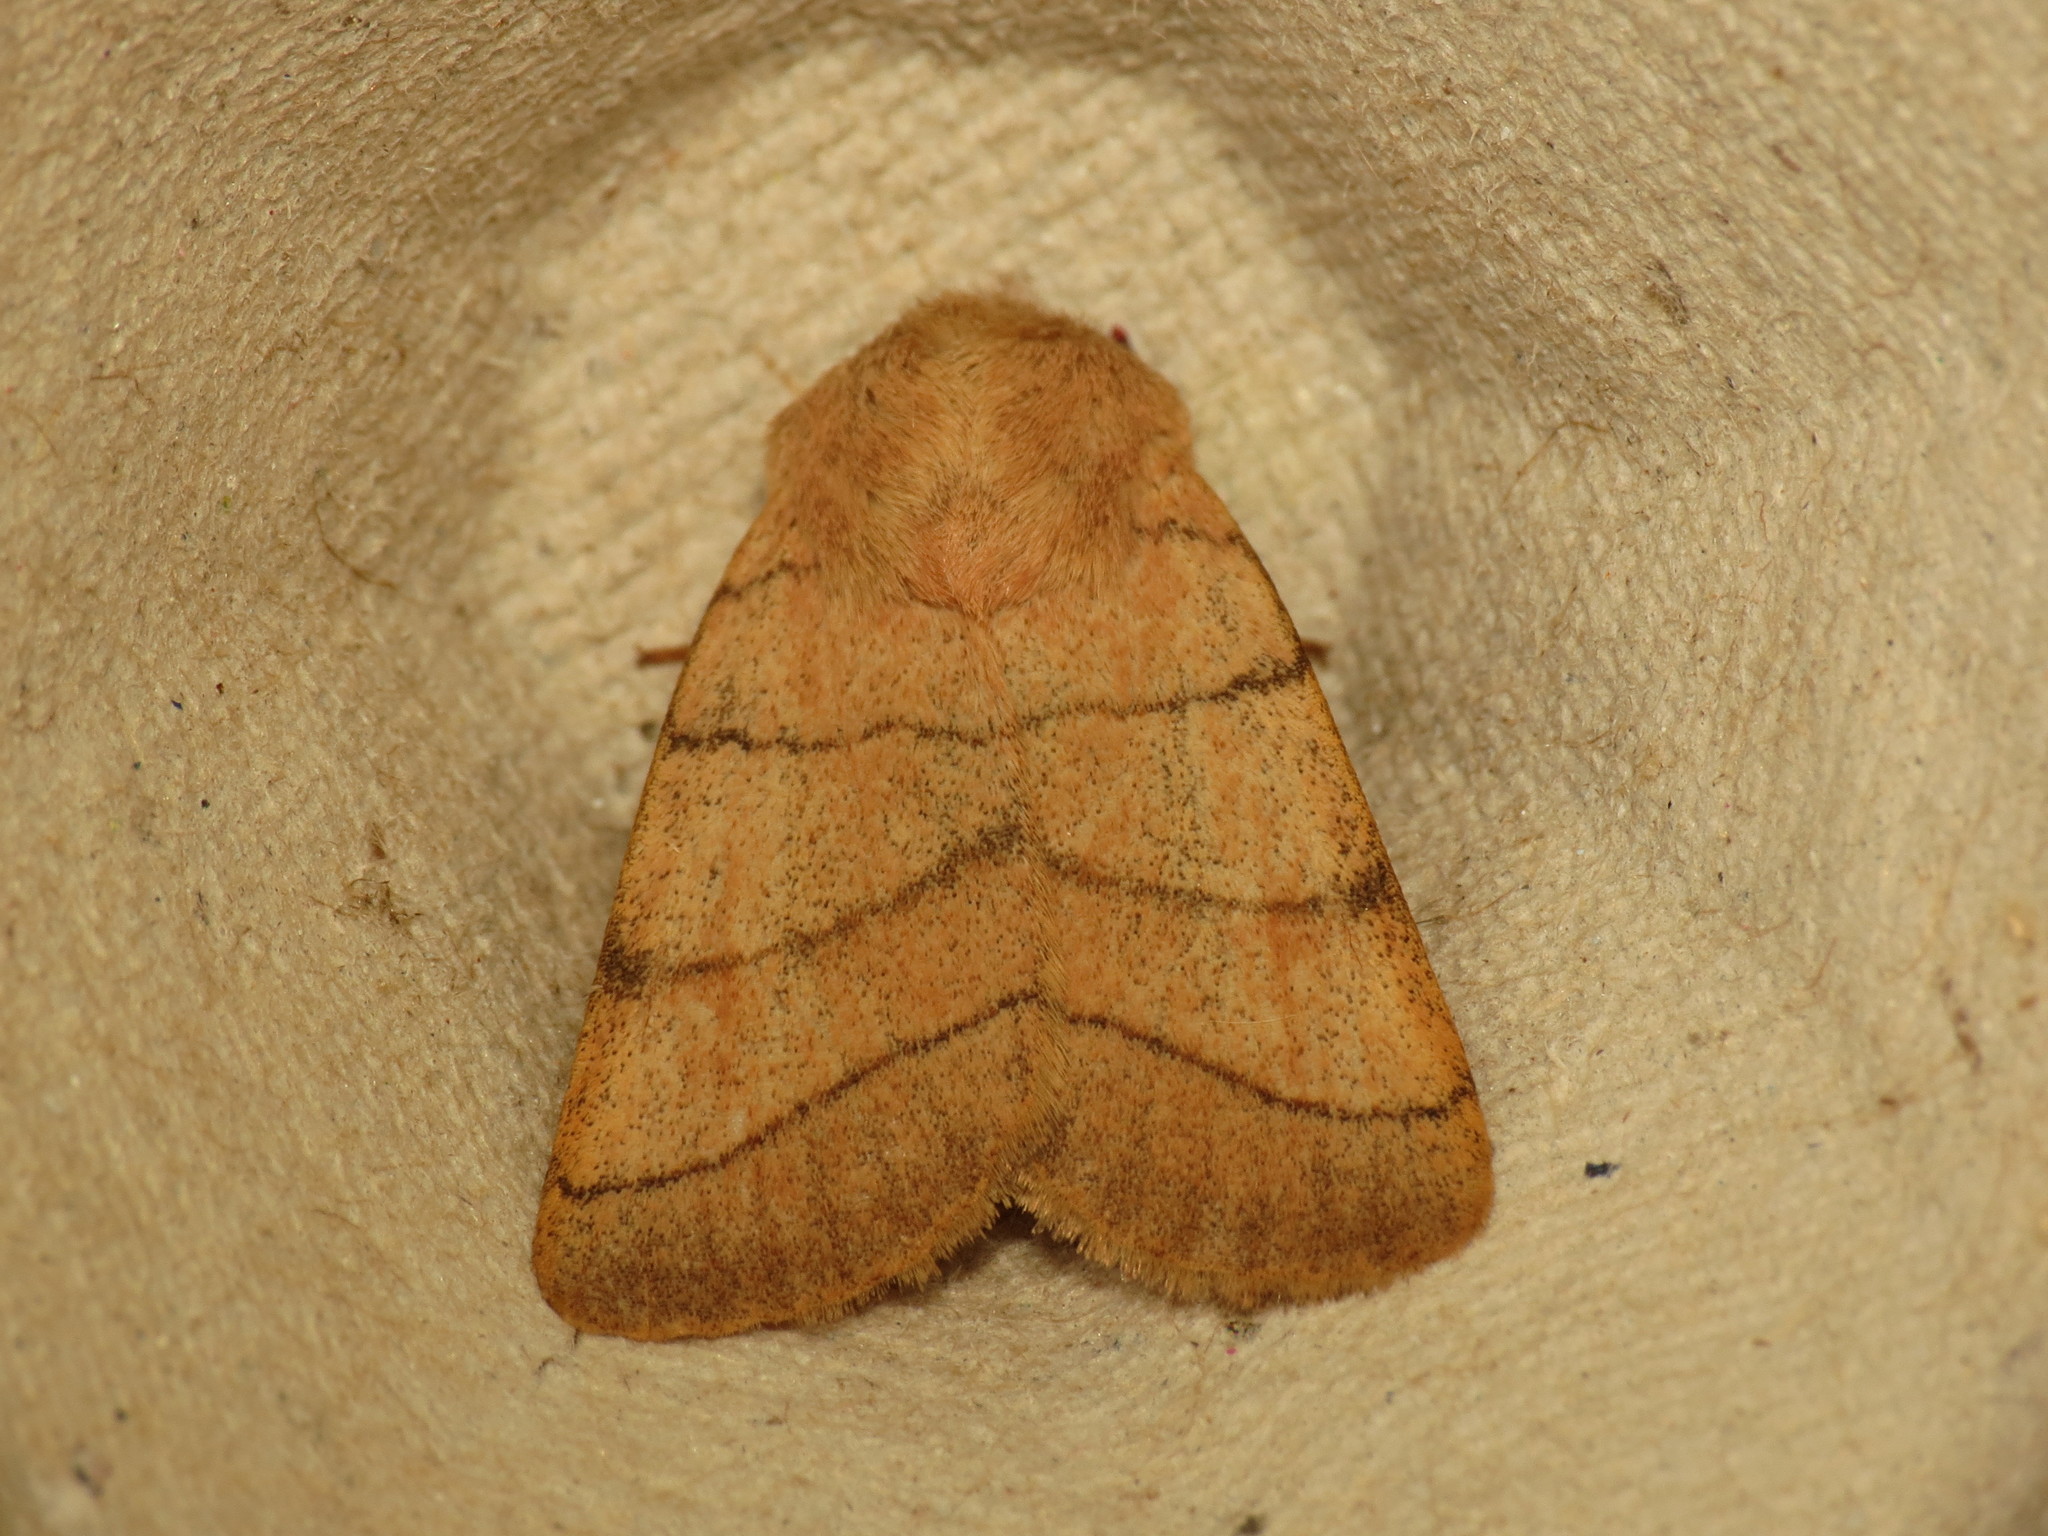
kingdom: Animalia
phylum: Arthropoda
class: Insecta
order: Lepidoptera
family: Noctuidae
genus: Charanyca
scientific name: Charanyca trigrammica
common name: Treble lines
